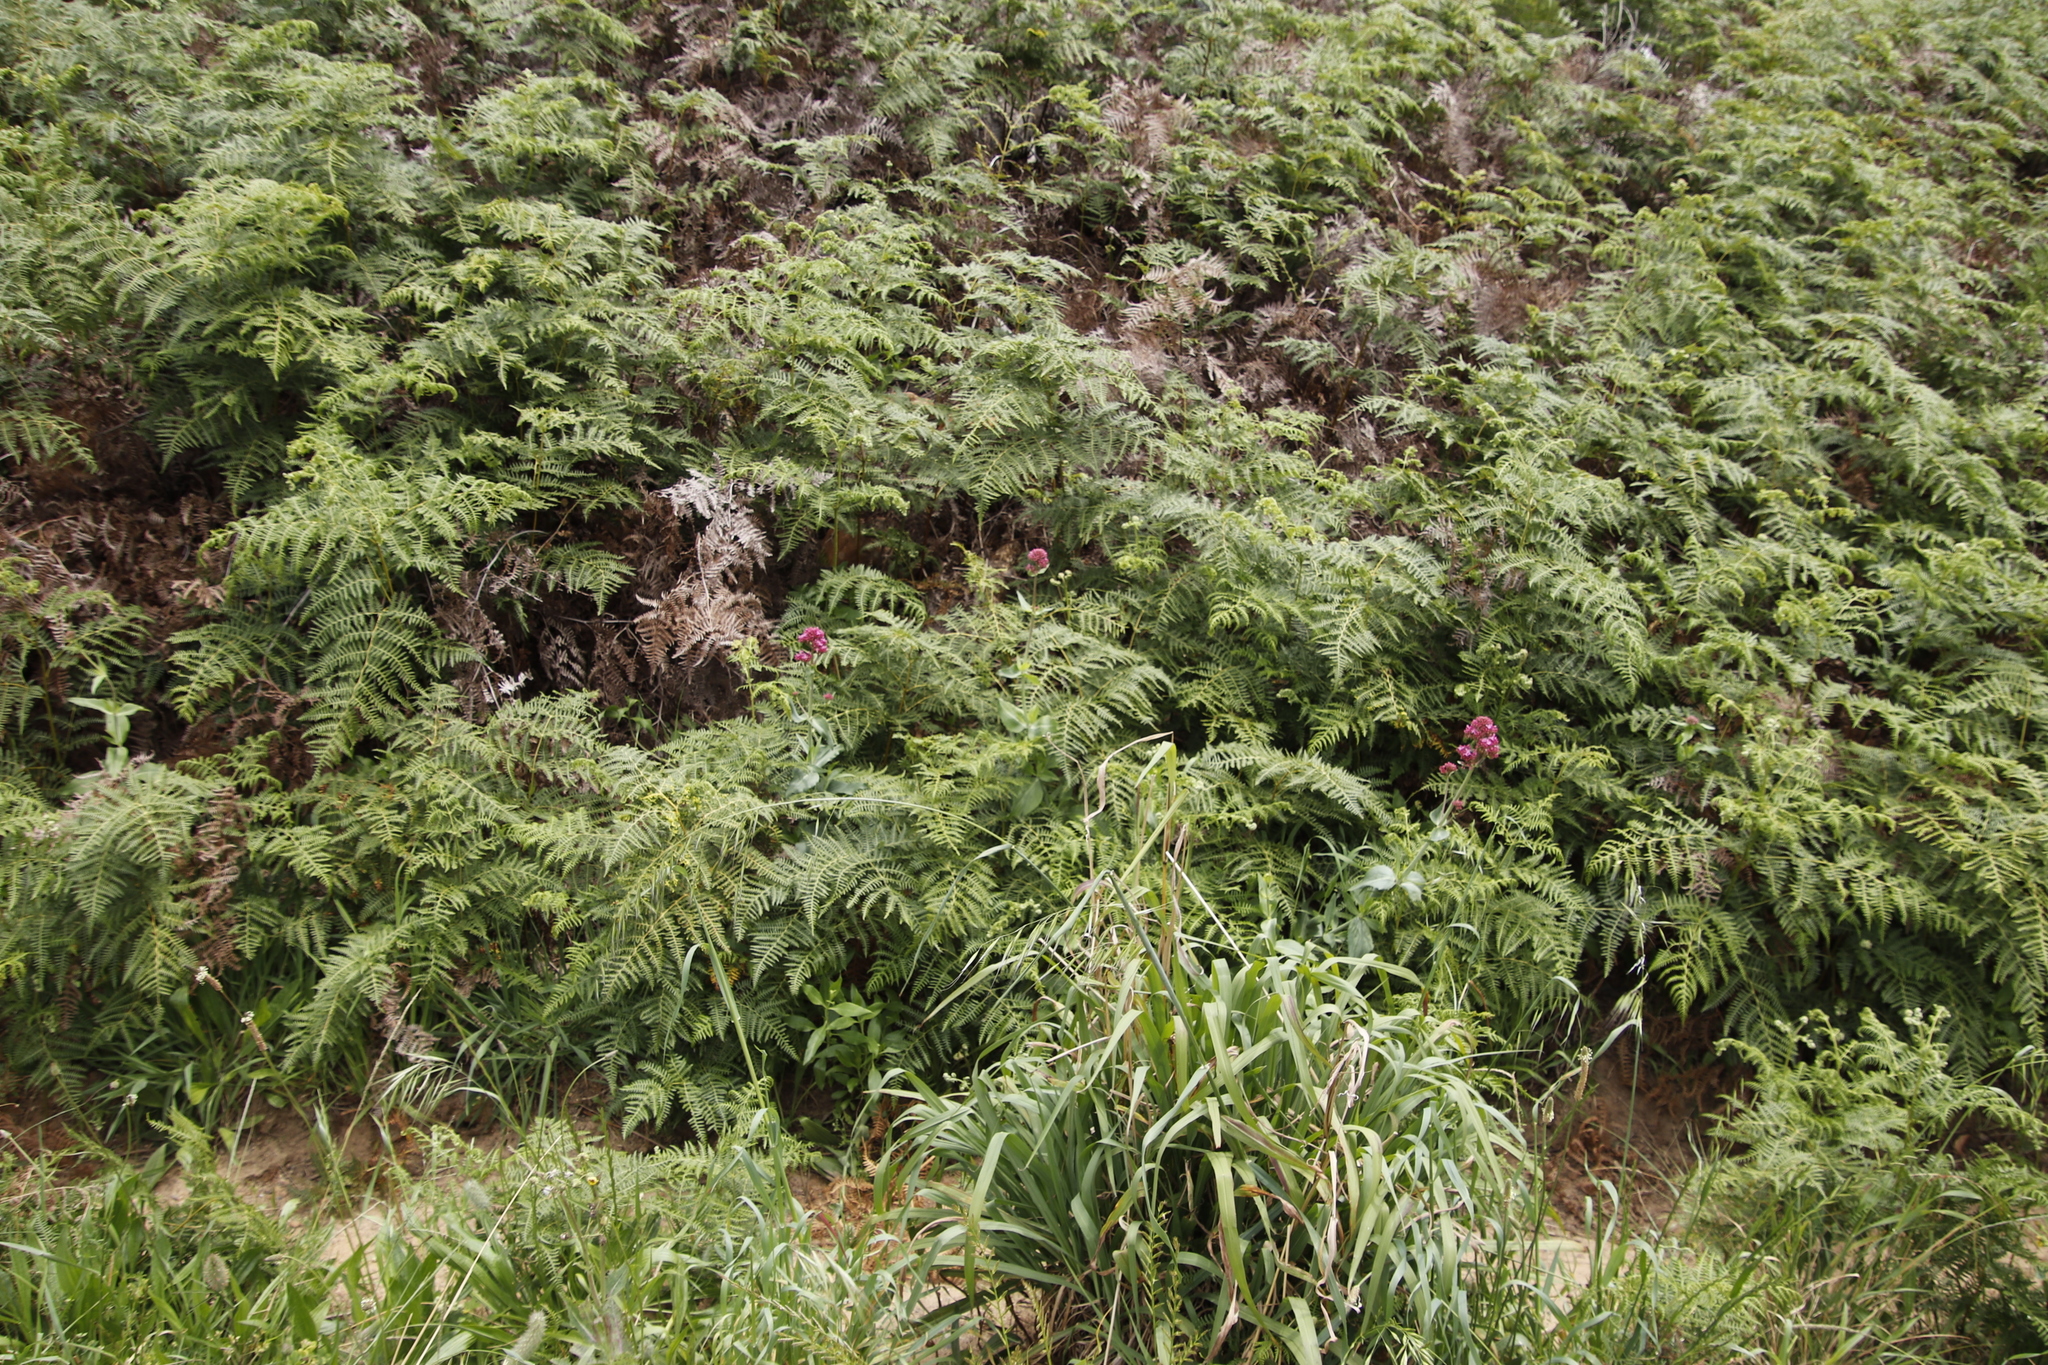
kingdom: Plantae
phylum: Tracheophyta
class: Magnoliopsida
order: Dipsacales
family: Caprifoliaceae
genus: Centranthus
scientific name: Centranthus ruber
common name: Red valerian
